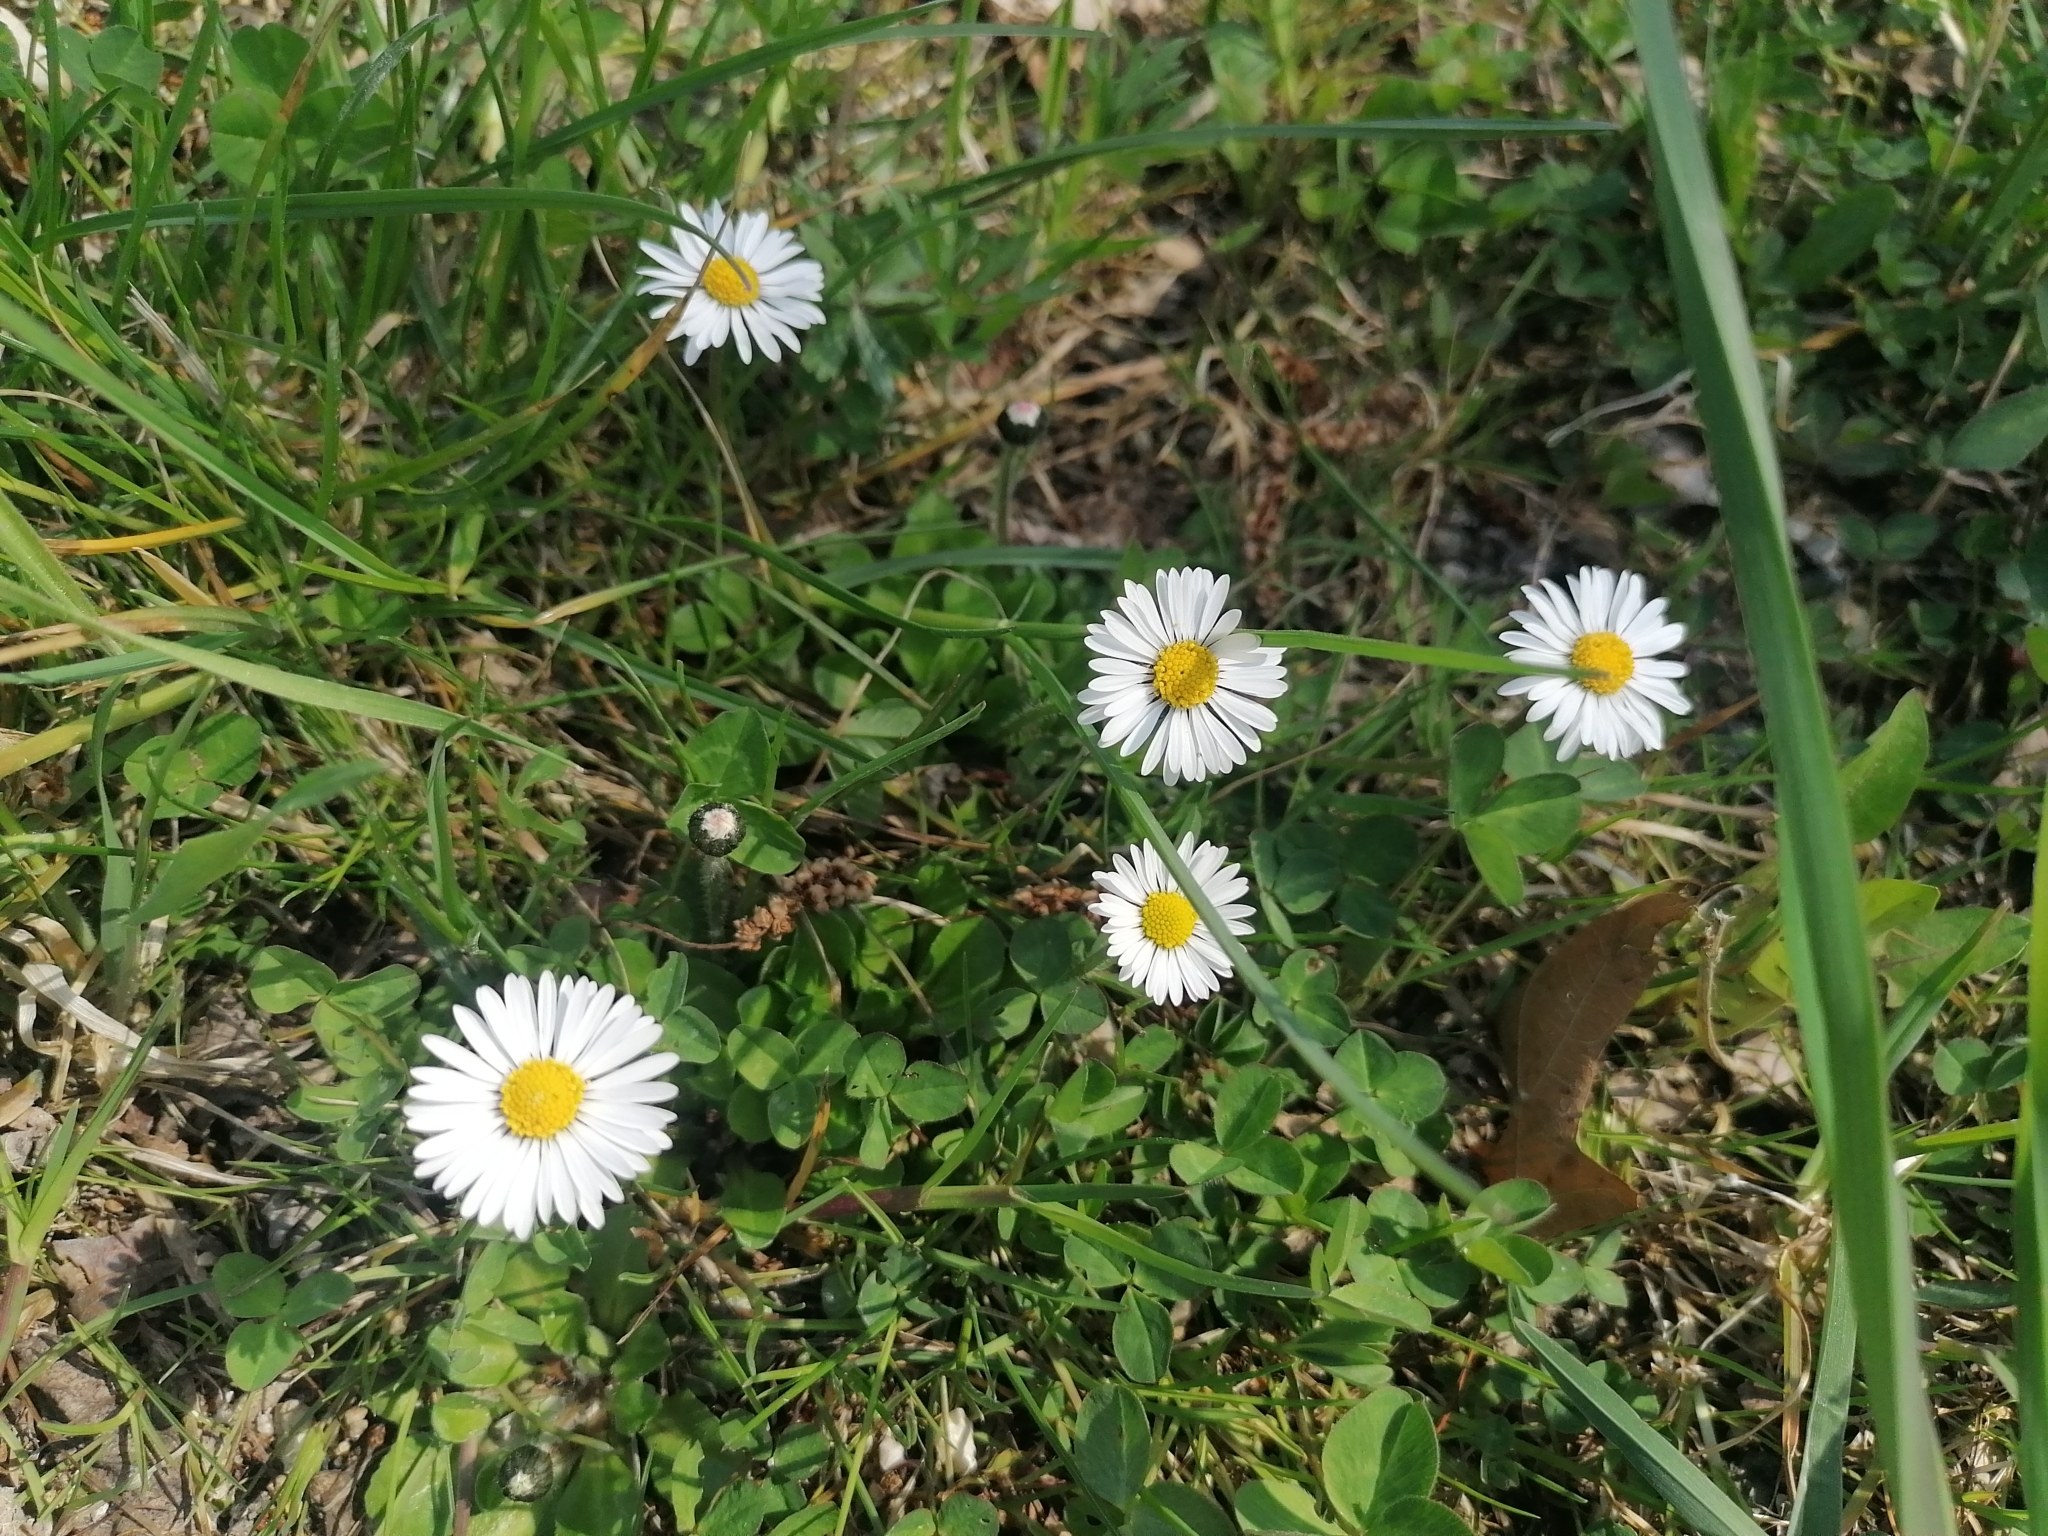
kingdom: Plantae
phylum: Tracheophyta
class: Magnoliopsida
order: Asterales
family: Asteraceae
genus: Bellis
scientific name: Bellis perennis
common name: Lawndaisy
